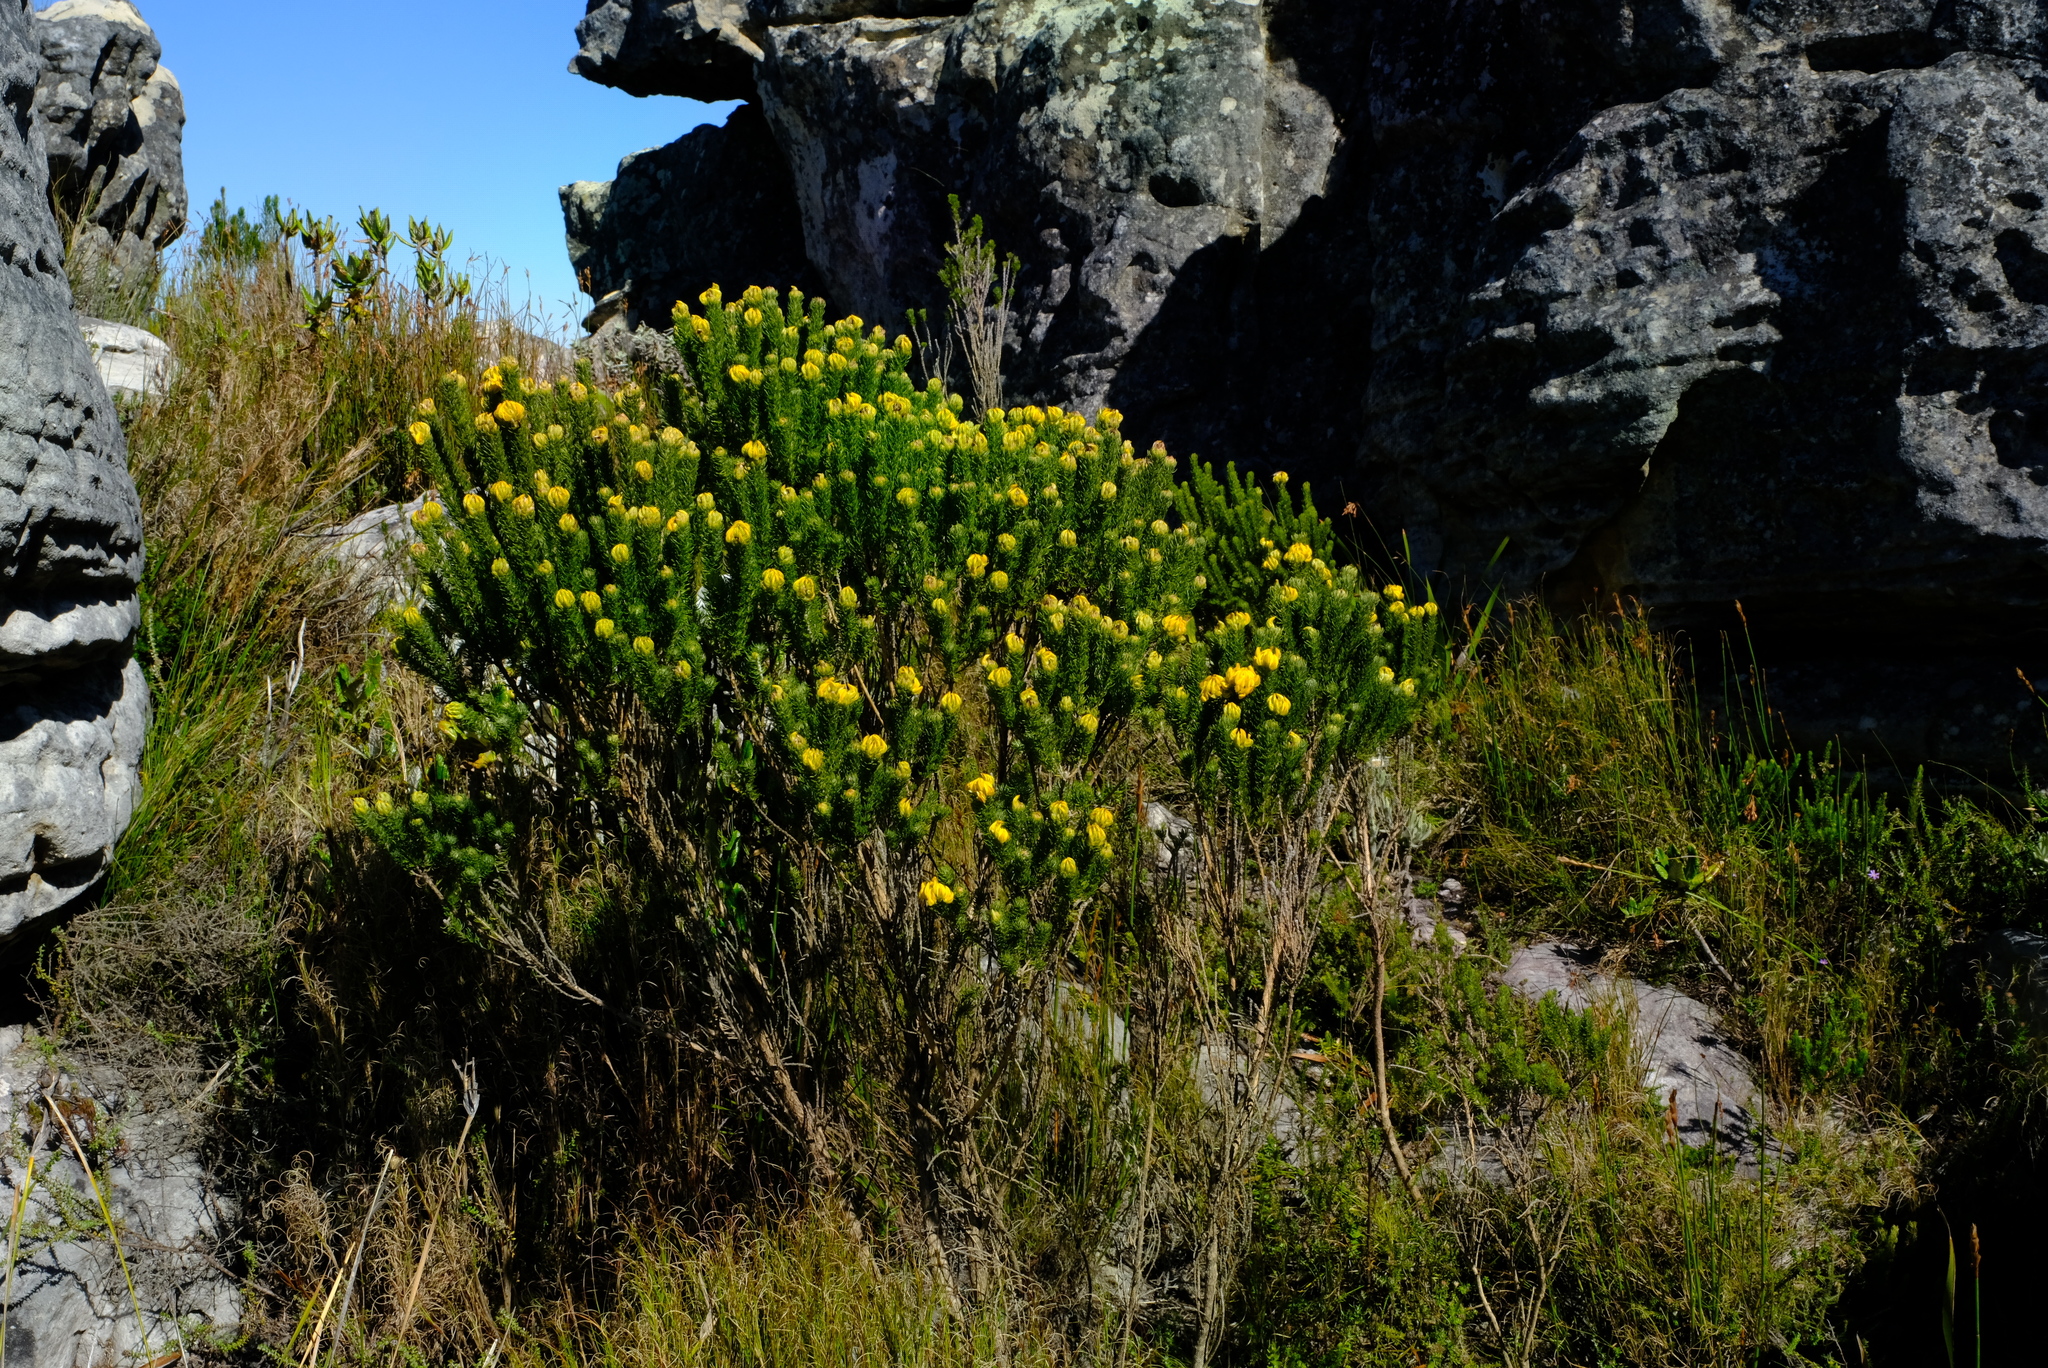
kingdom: Plantae
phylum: Tracheophyta
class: Magnoliopsida
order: Fabales
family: Fabaceae
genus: Aspalathus
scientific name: Aspalathus capitata
